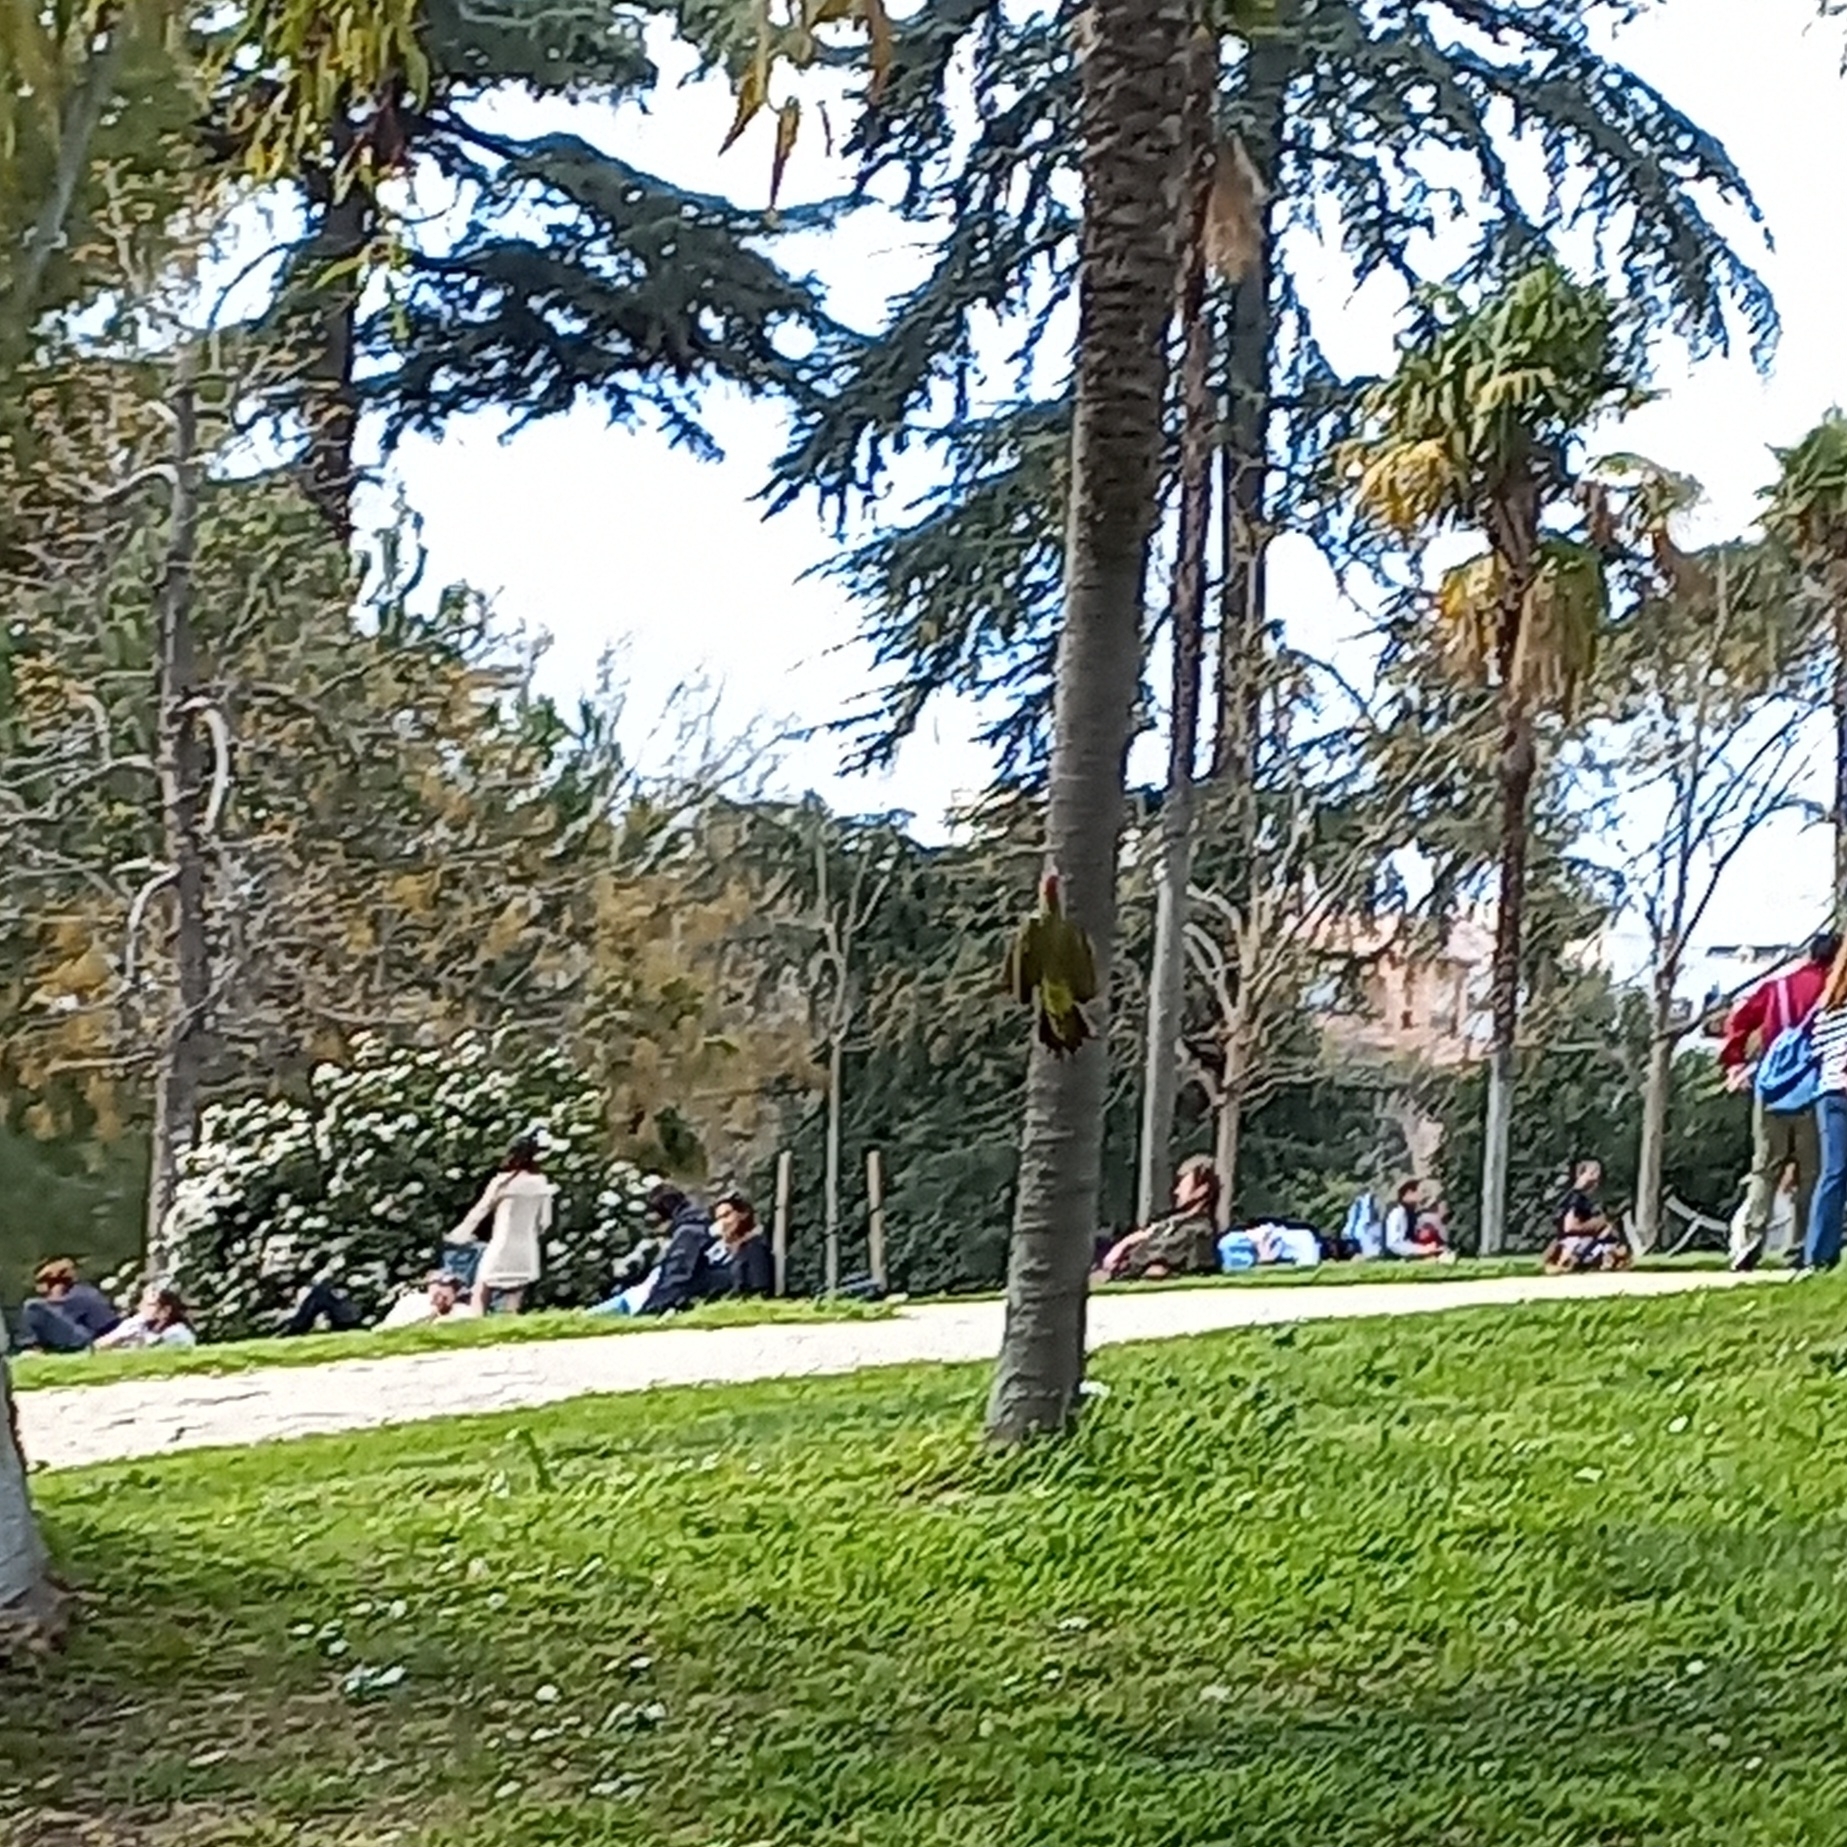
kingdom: Animalia
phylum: Chordata
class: Aves
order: Piciformes
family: Picidae
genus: Picus
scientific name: Picus sharpei
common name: Iberian green woodpecker
